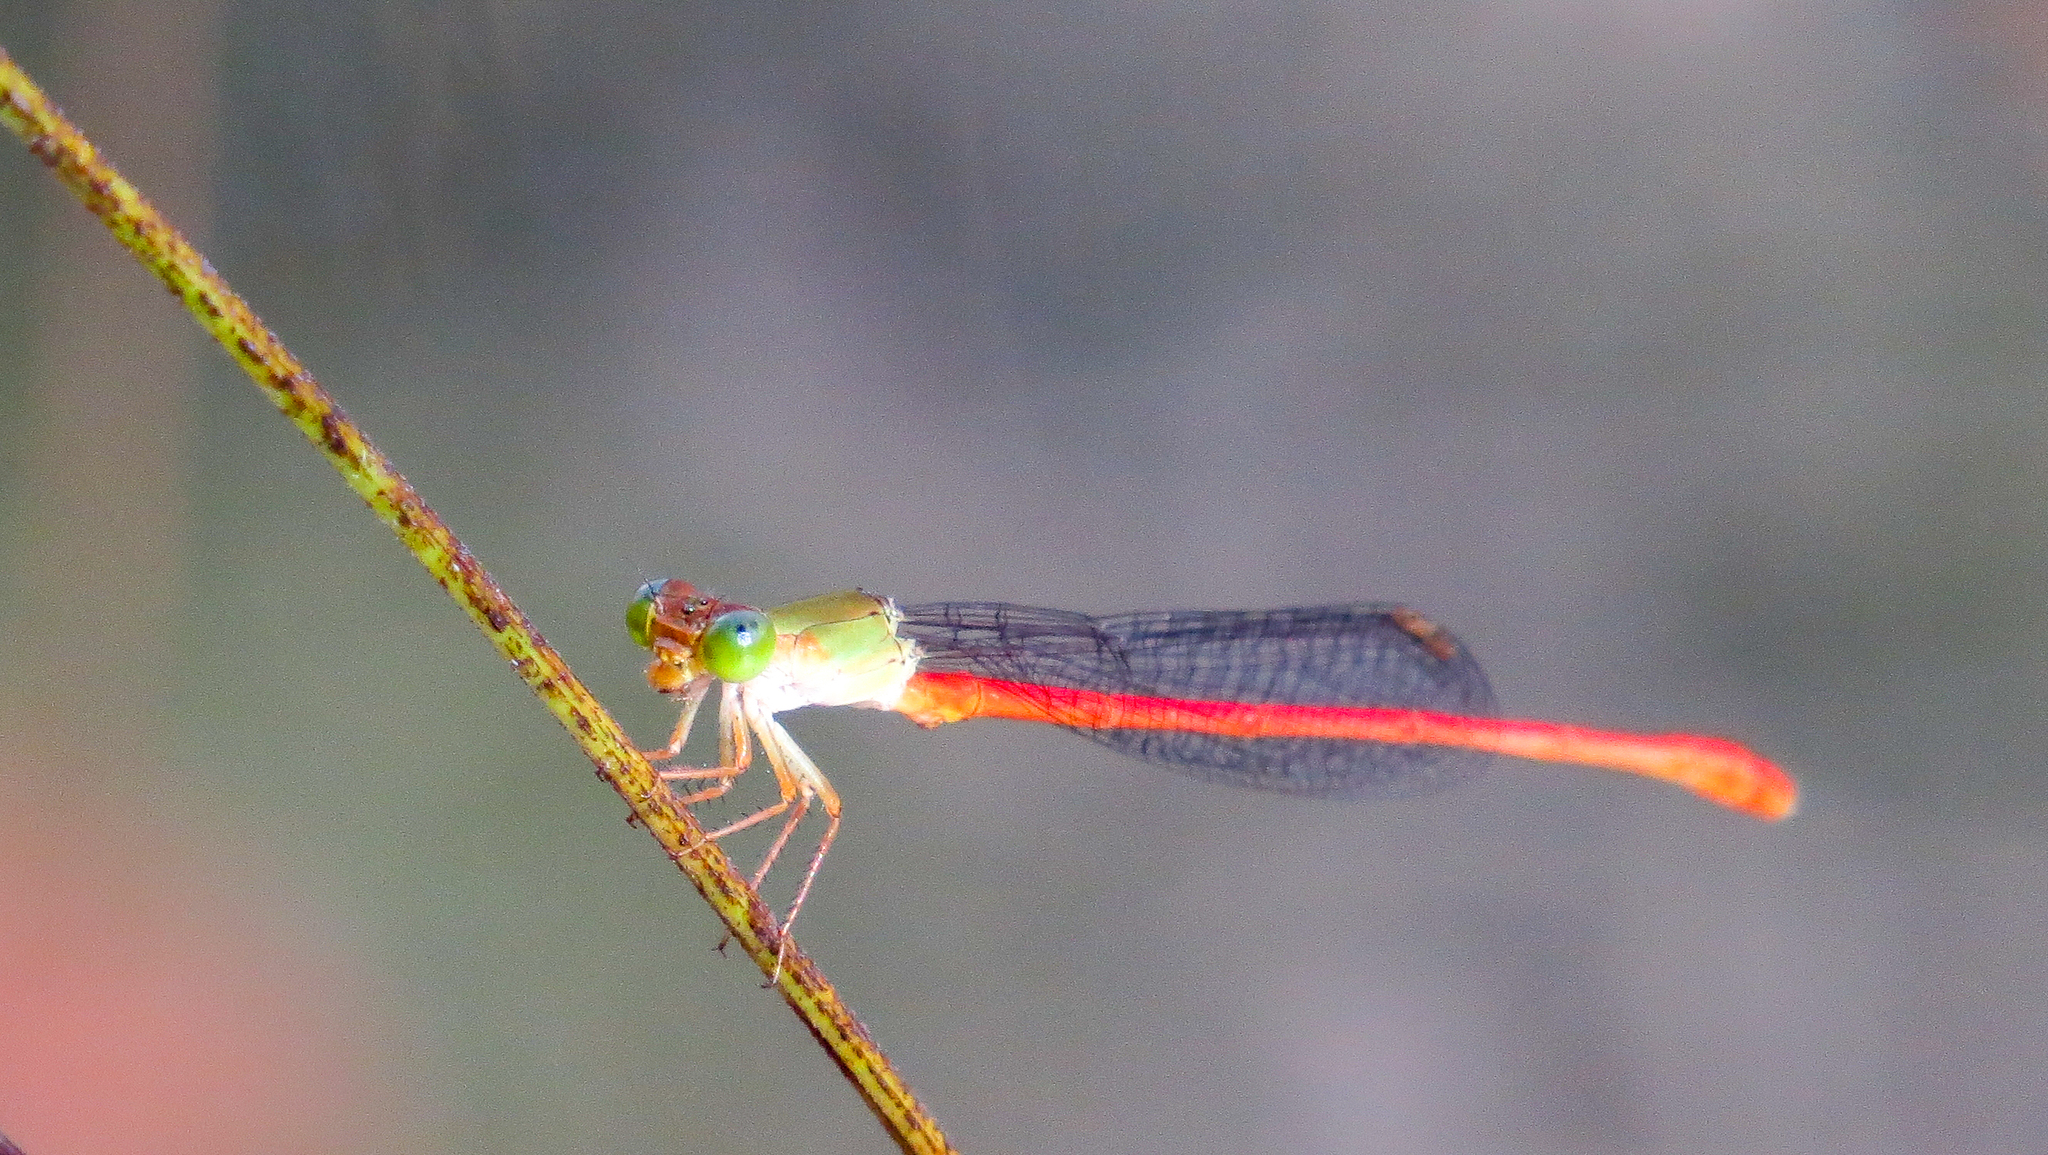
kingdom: Animalia
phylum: Arthropoda
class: Insecta
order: Odonata
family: Coenagrionidae
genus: Ceriagrion
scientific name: Ceriagrion aeruginosum
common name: Redtail
